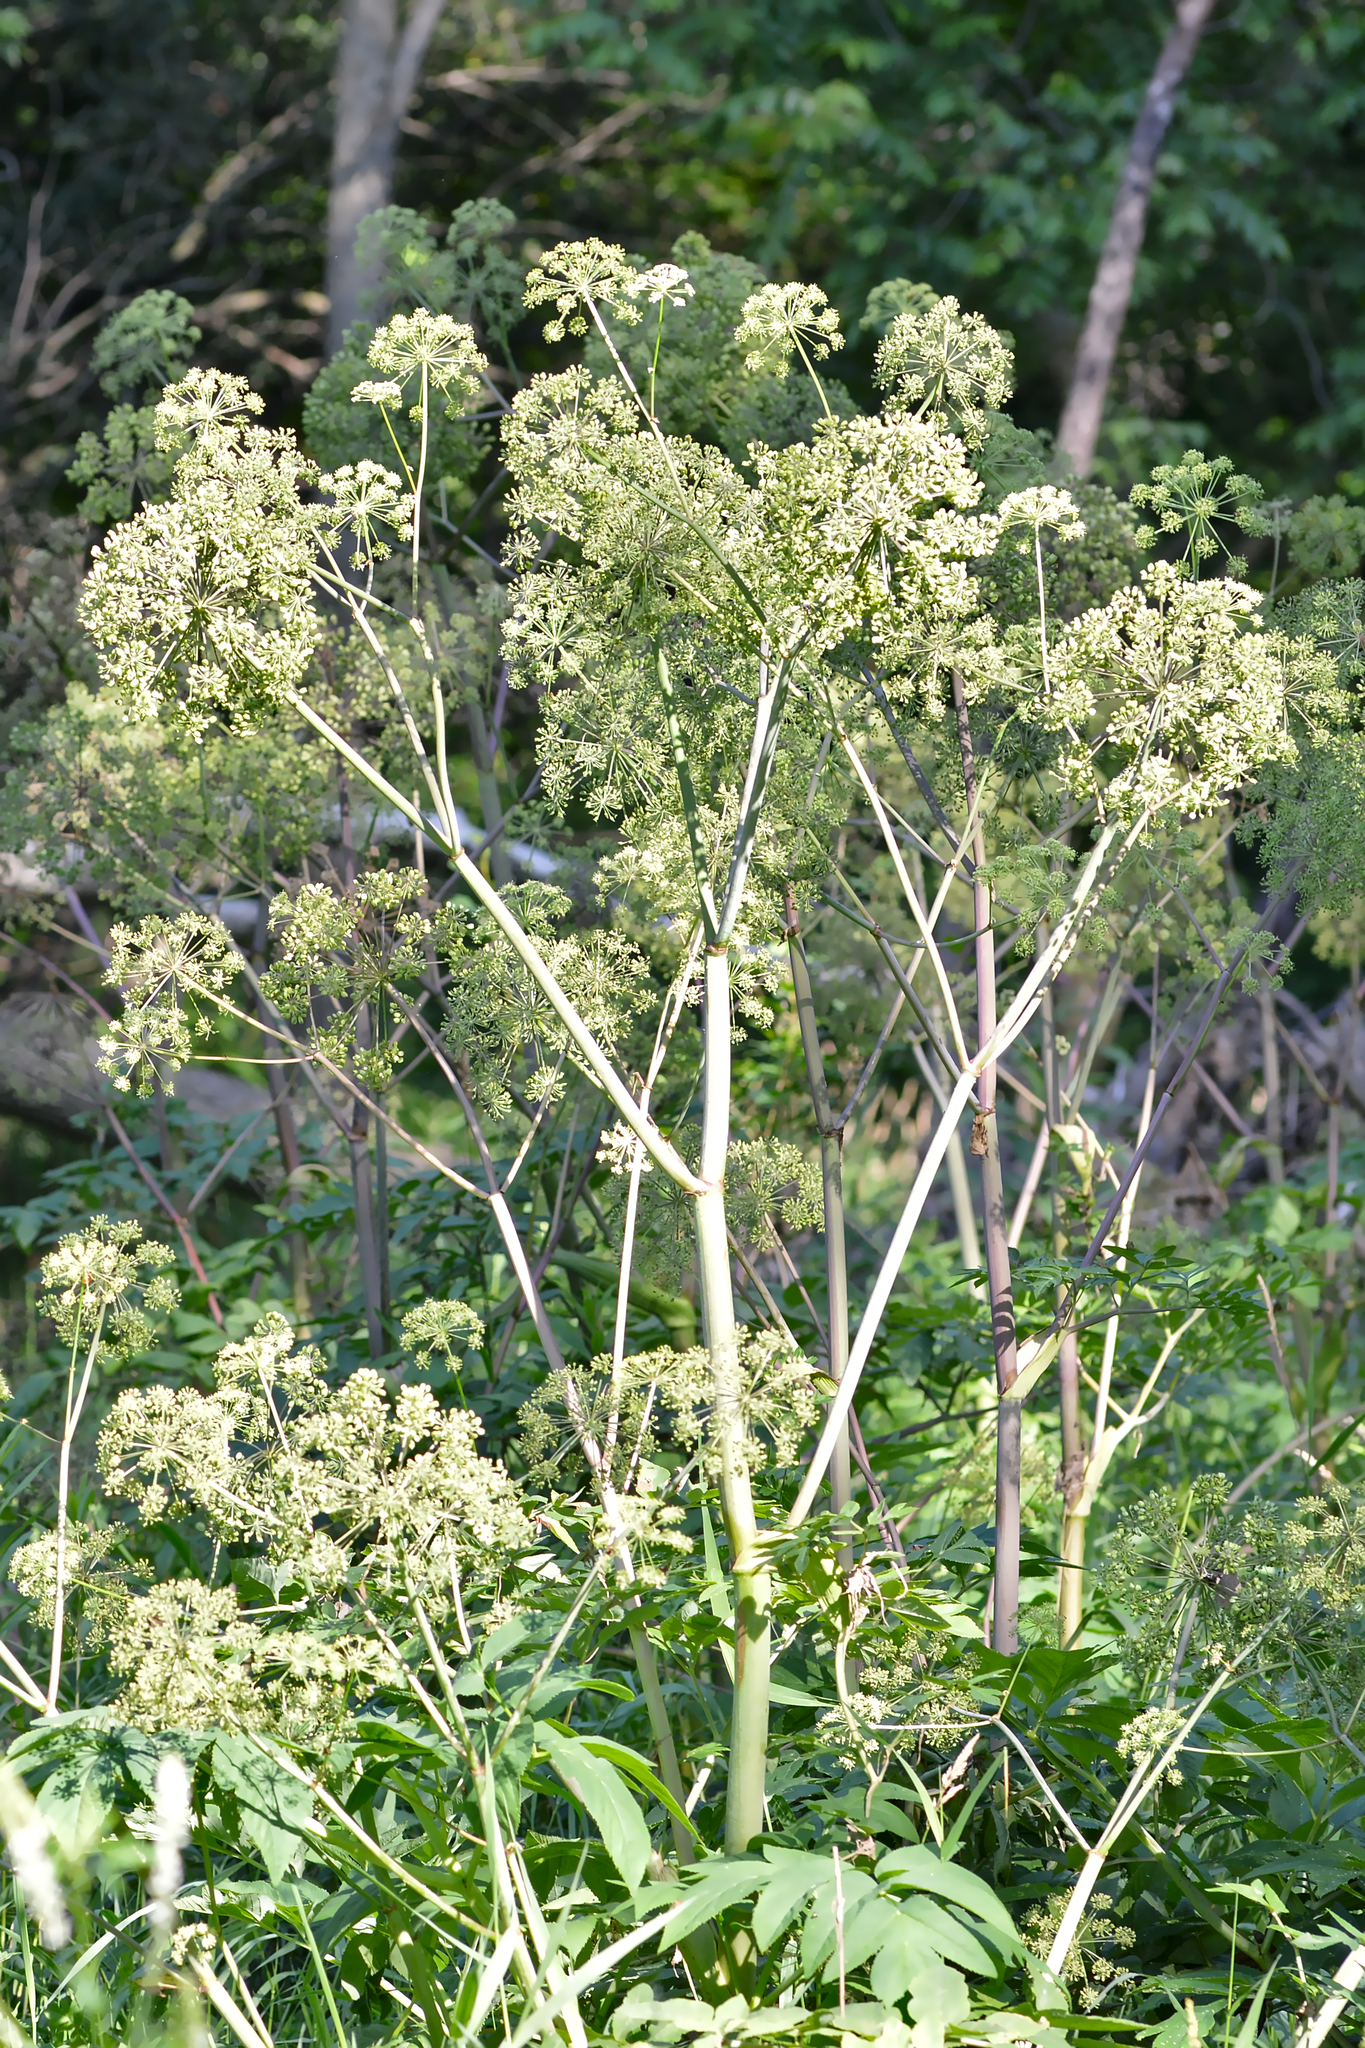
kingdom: Plantae
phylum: Tracheophyta
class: Magnoliopsida
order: Apiales
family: Apiaceae
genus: Angelica
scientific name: Angelica atropurpurea
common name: Great angelica
